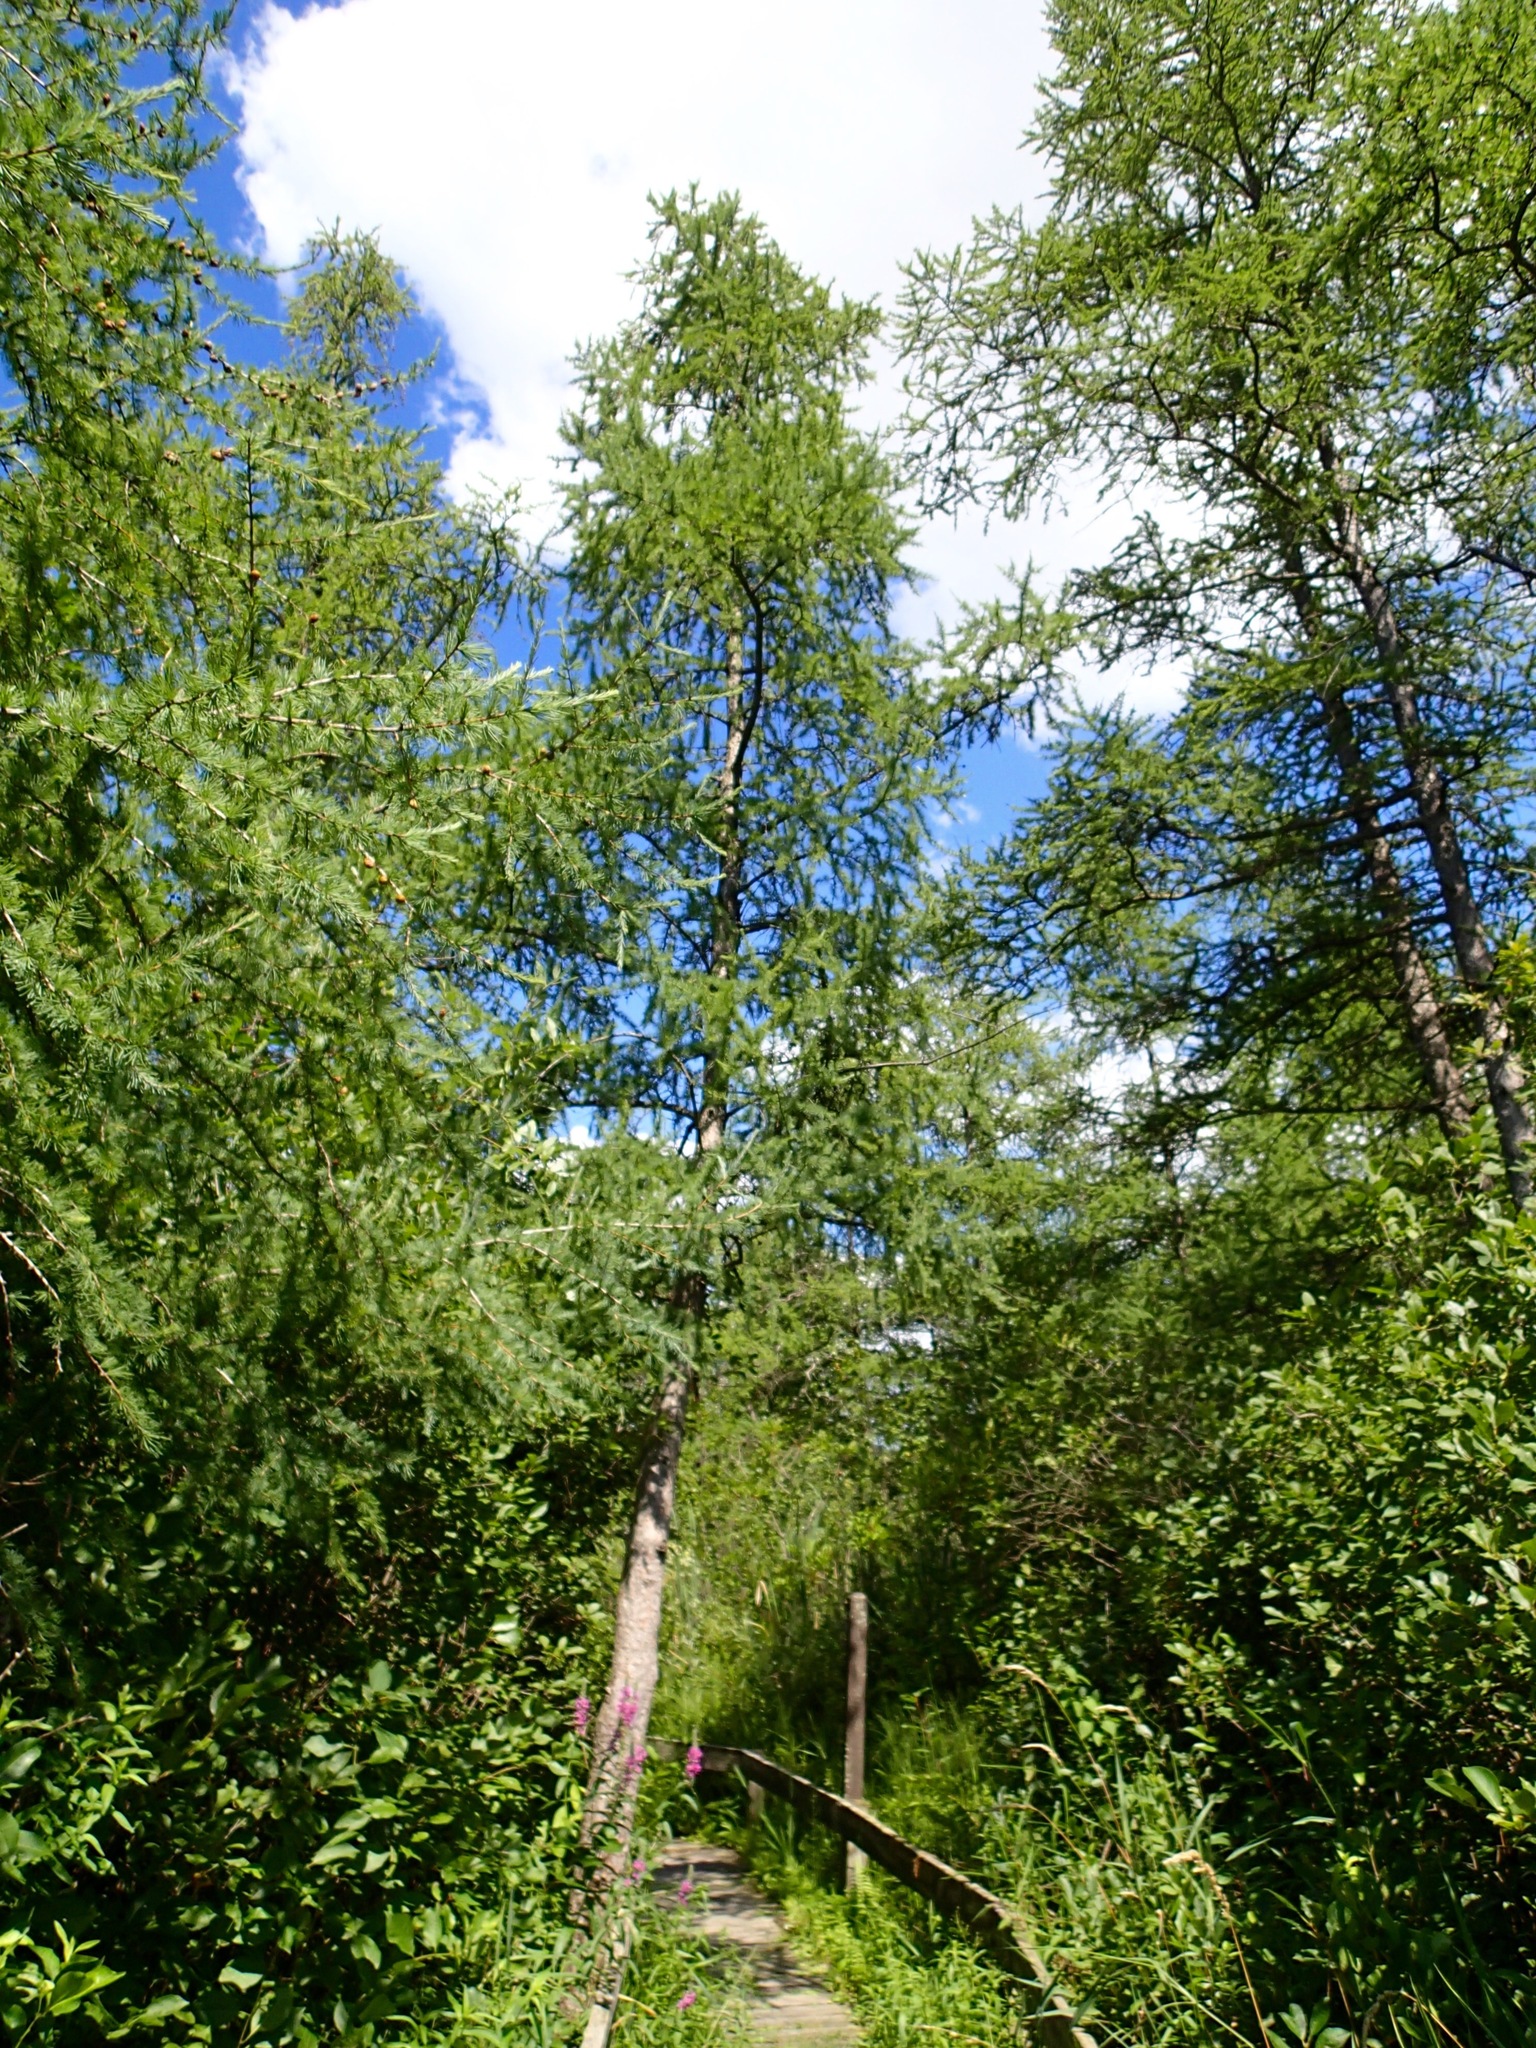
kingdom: Plantae
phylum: Tracheophyta
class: Pinopsida
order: Pinales
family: Pinaceae
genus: Larix
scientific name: Larix laricina
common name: American larch
